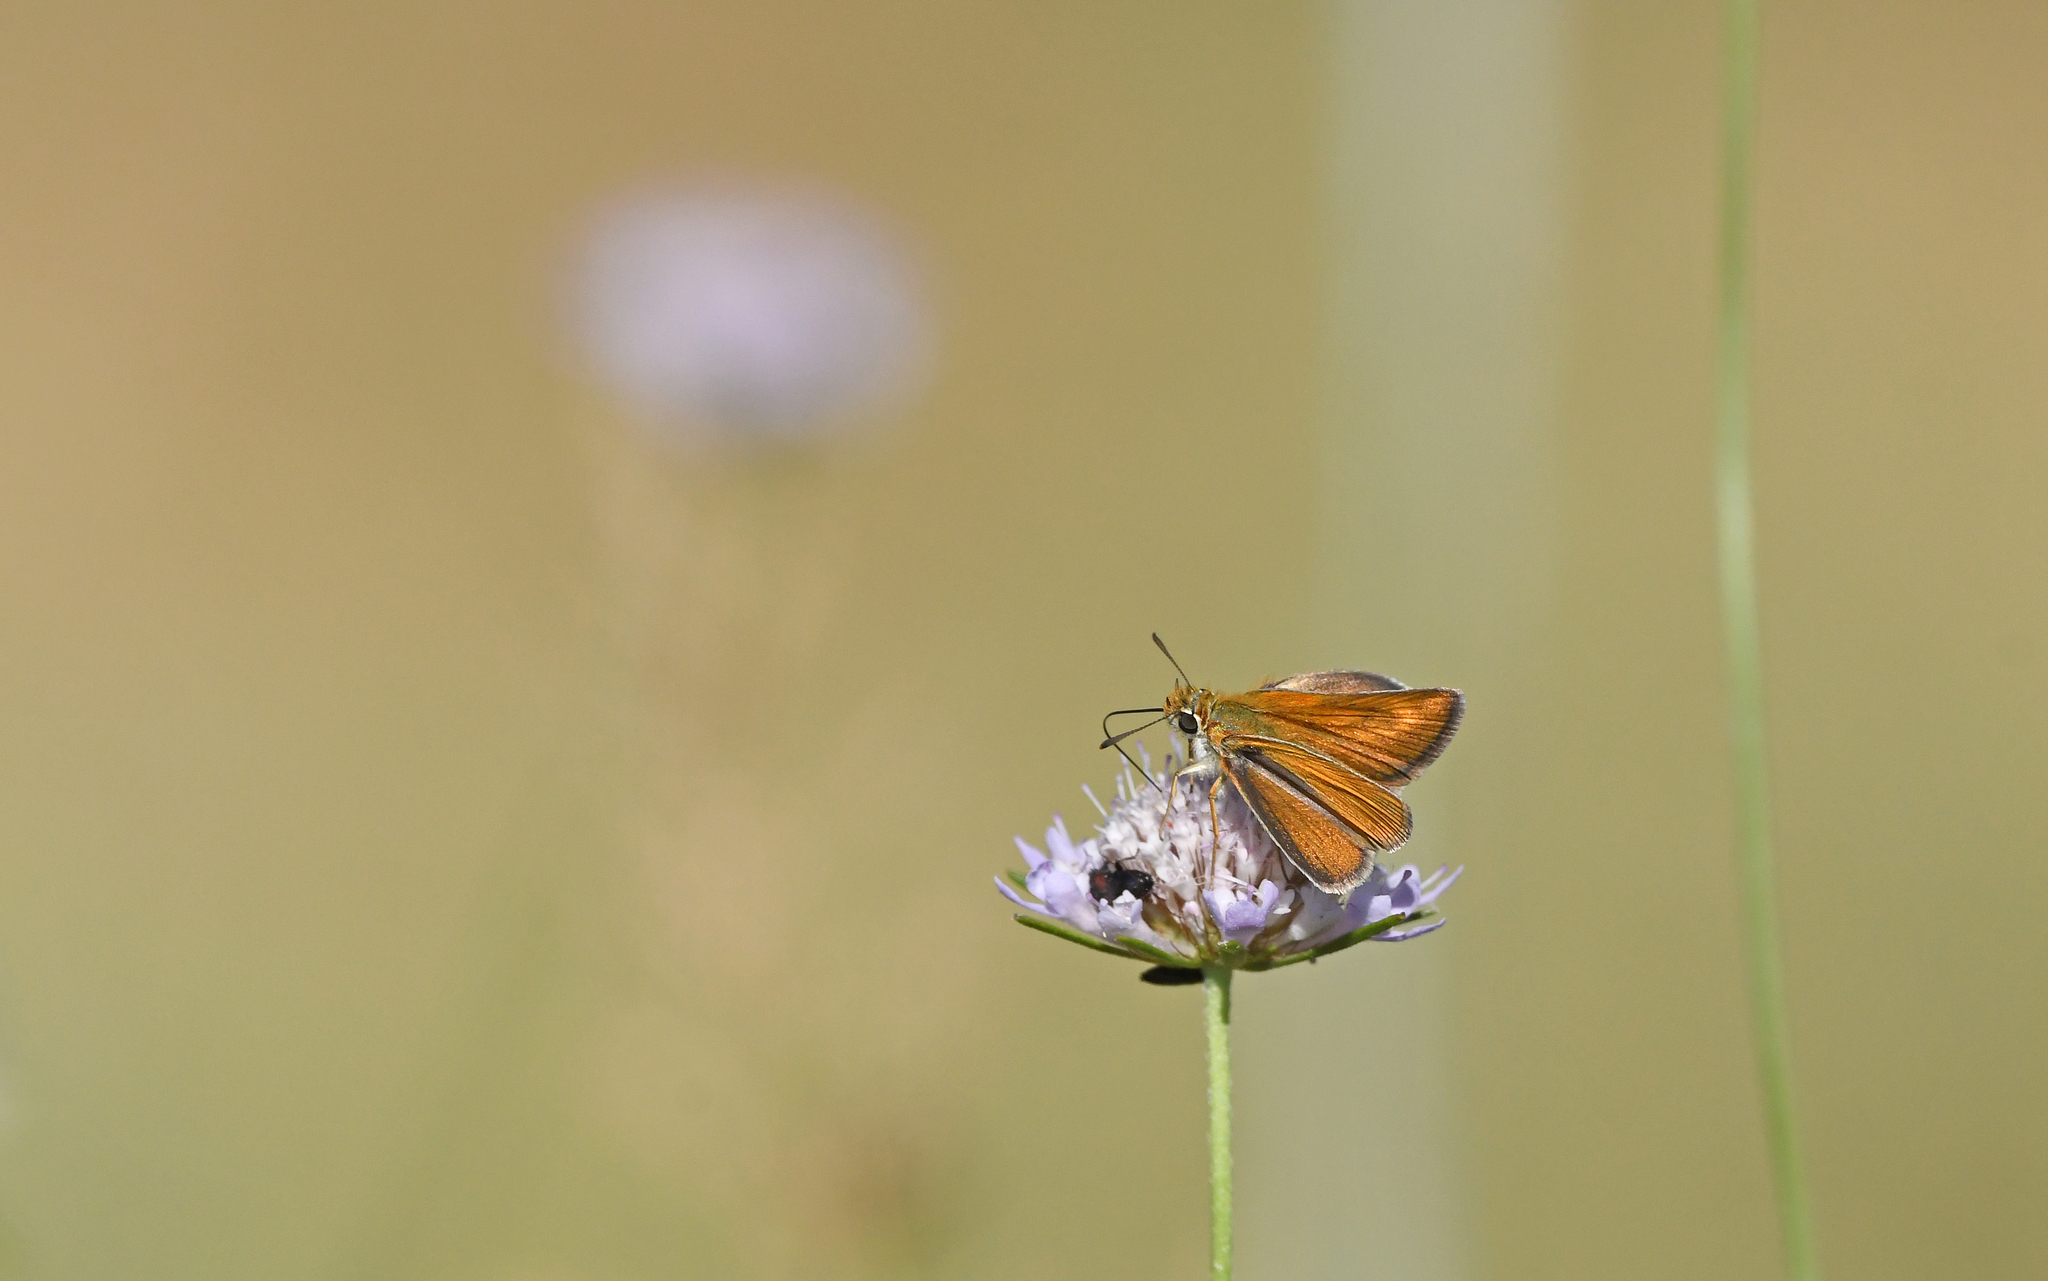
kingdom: Animalia
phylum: Arthropoda
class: Insecta
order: Lepidoptera
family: Hesperiidae
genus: Thymelicus
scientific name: Thymelicus acteon
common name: Lulworth skipper
